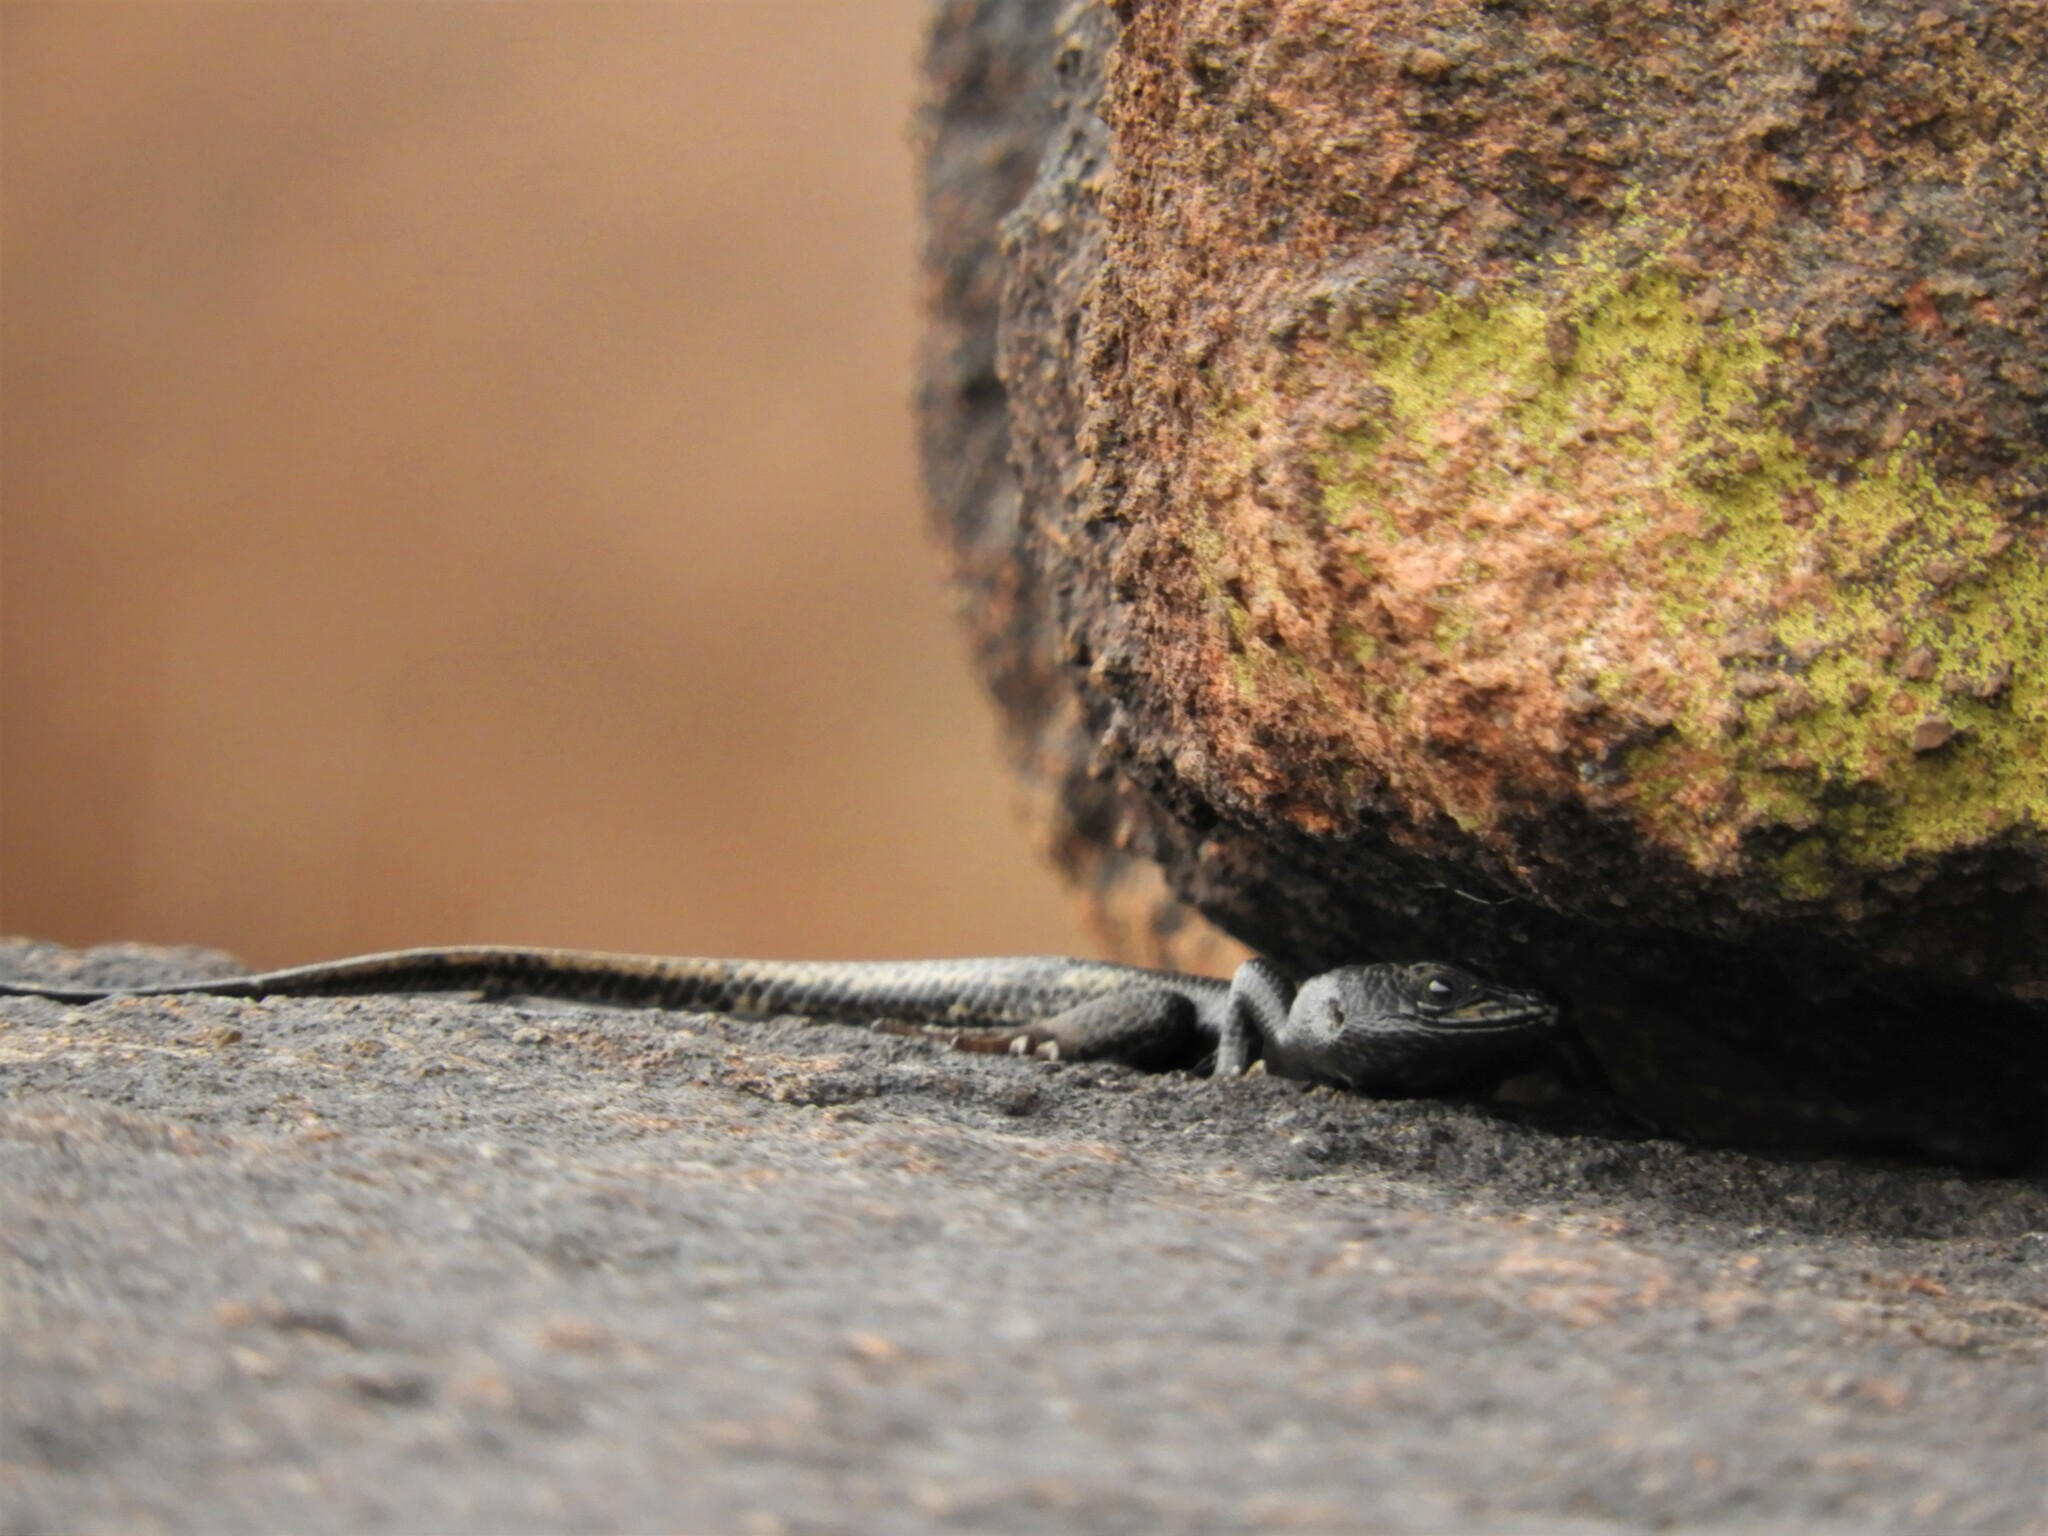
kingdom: Animalia
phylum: Chordata
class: Squamata
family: Scincidae
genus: Trachylepis
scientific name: Trachylepis sulcata
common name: Western rock skink
